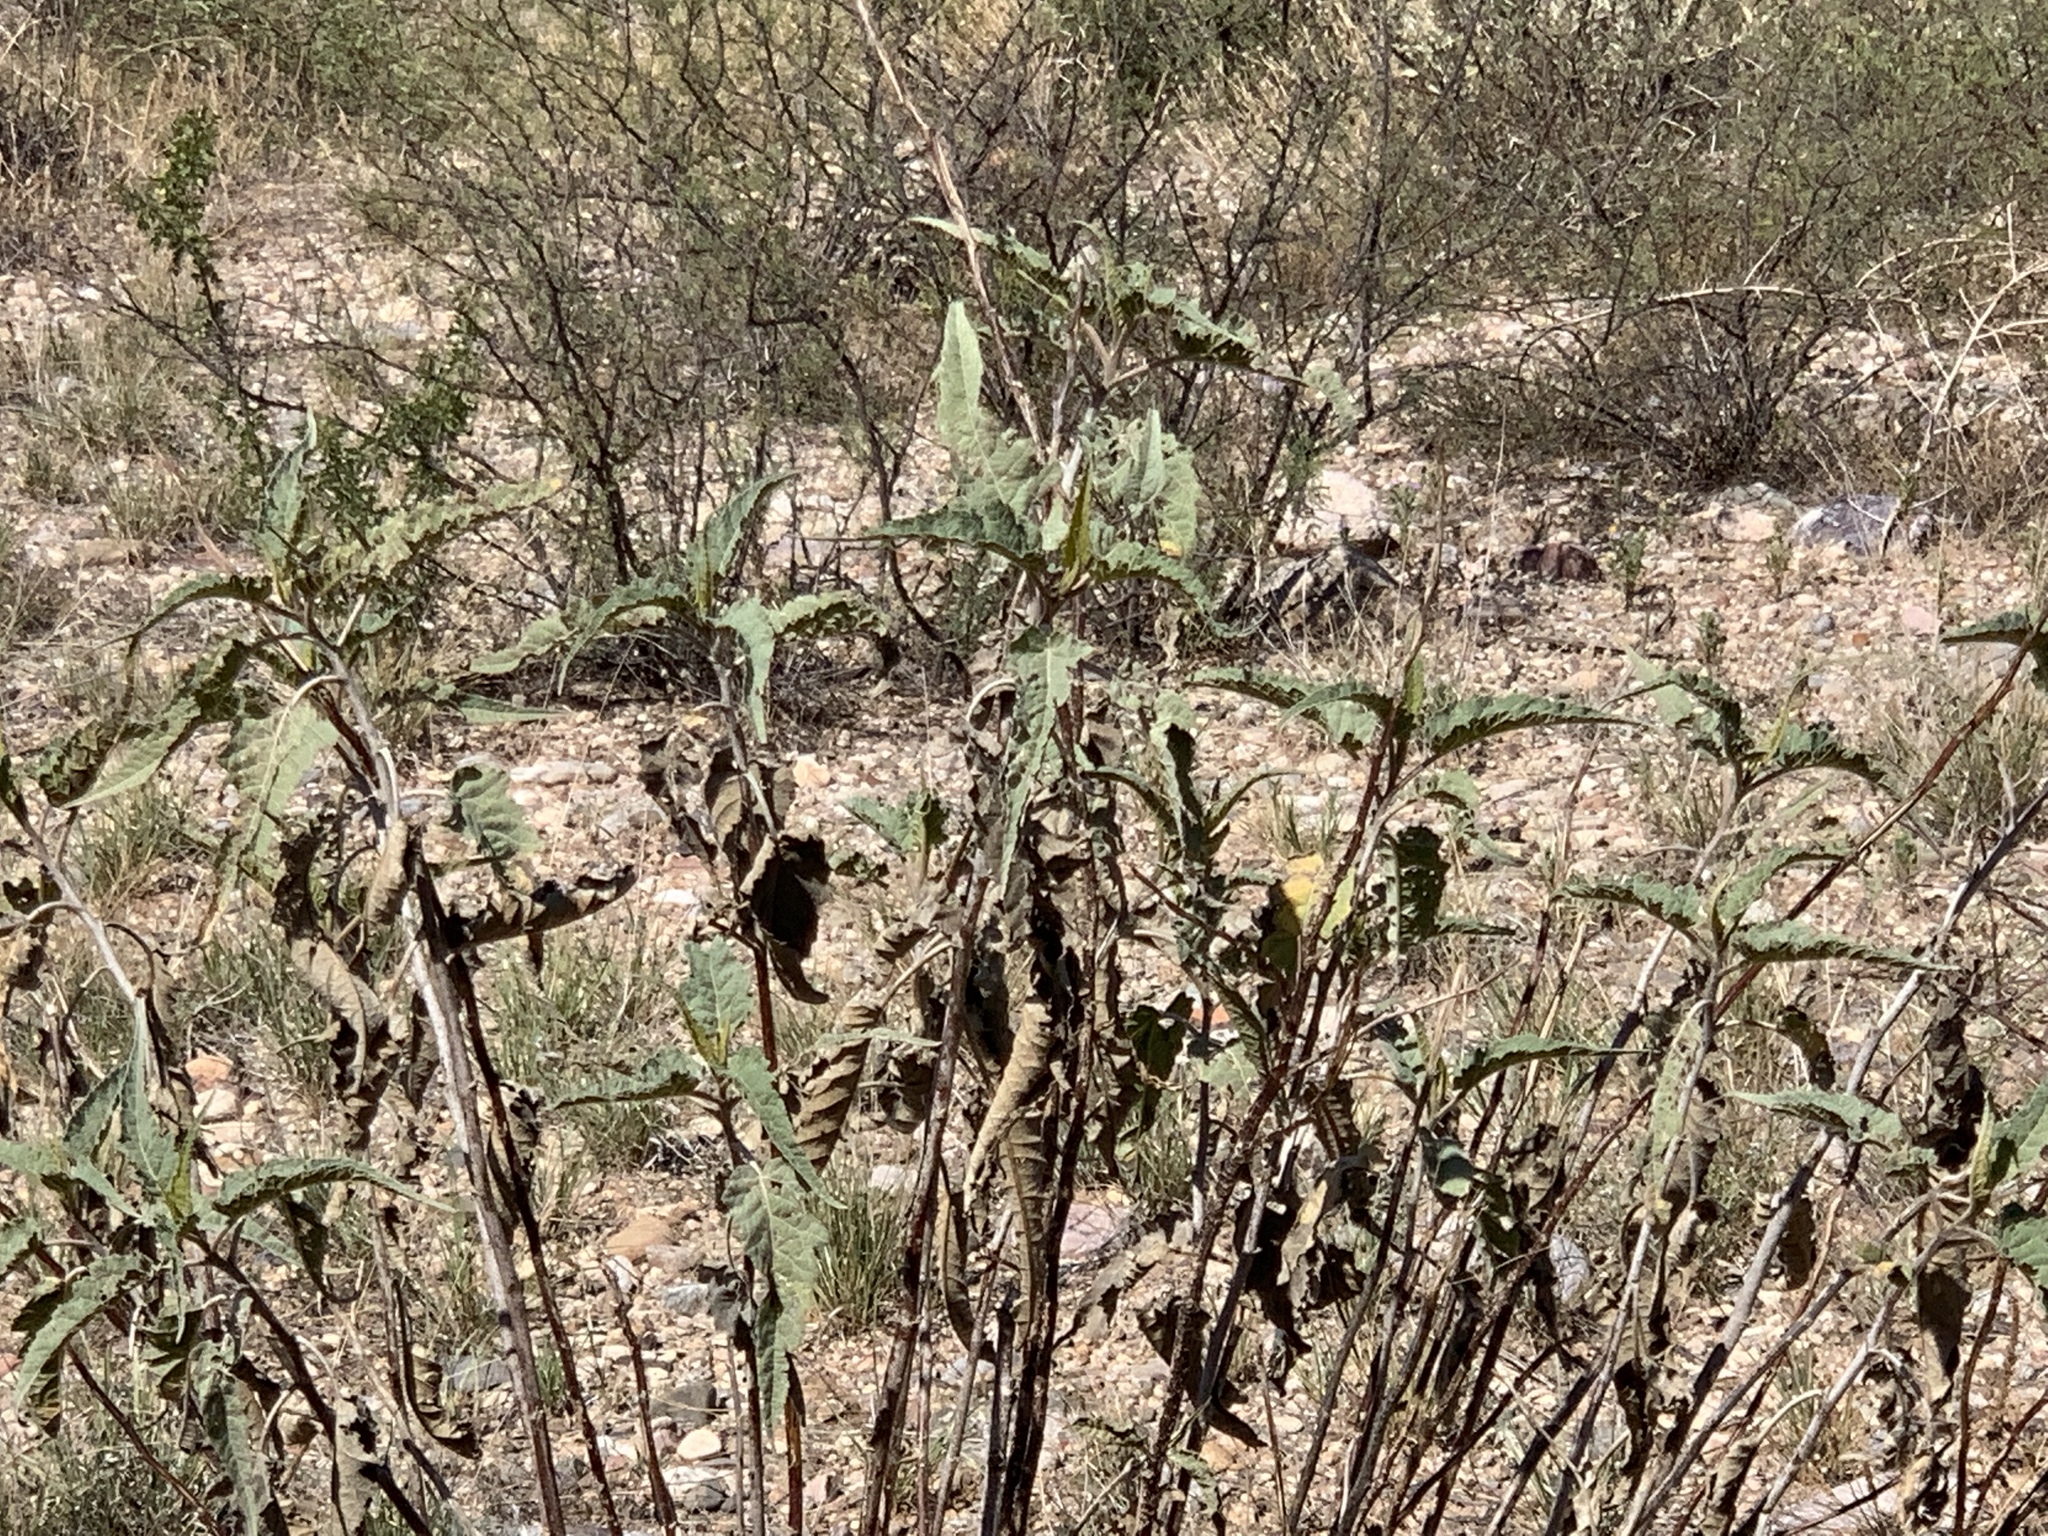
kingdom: Plantae
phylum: Tracheophyta
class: Magnoliopsida
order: Asterales
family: Asteraceae
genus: Ambrosia
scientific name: Ambrosia ambrosioides
